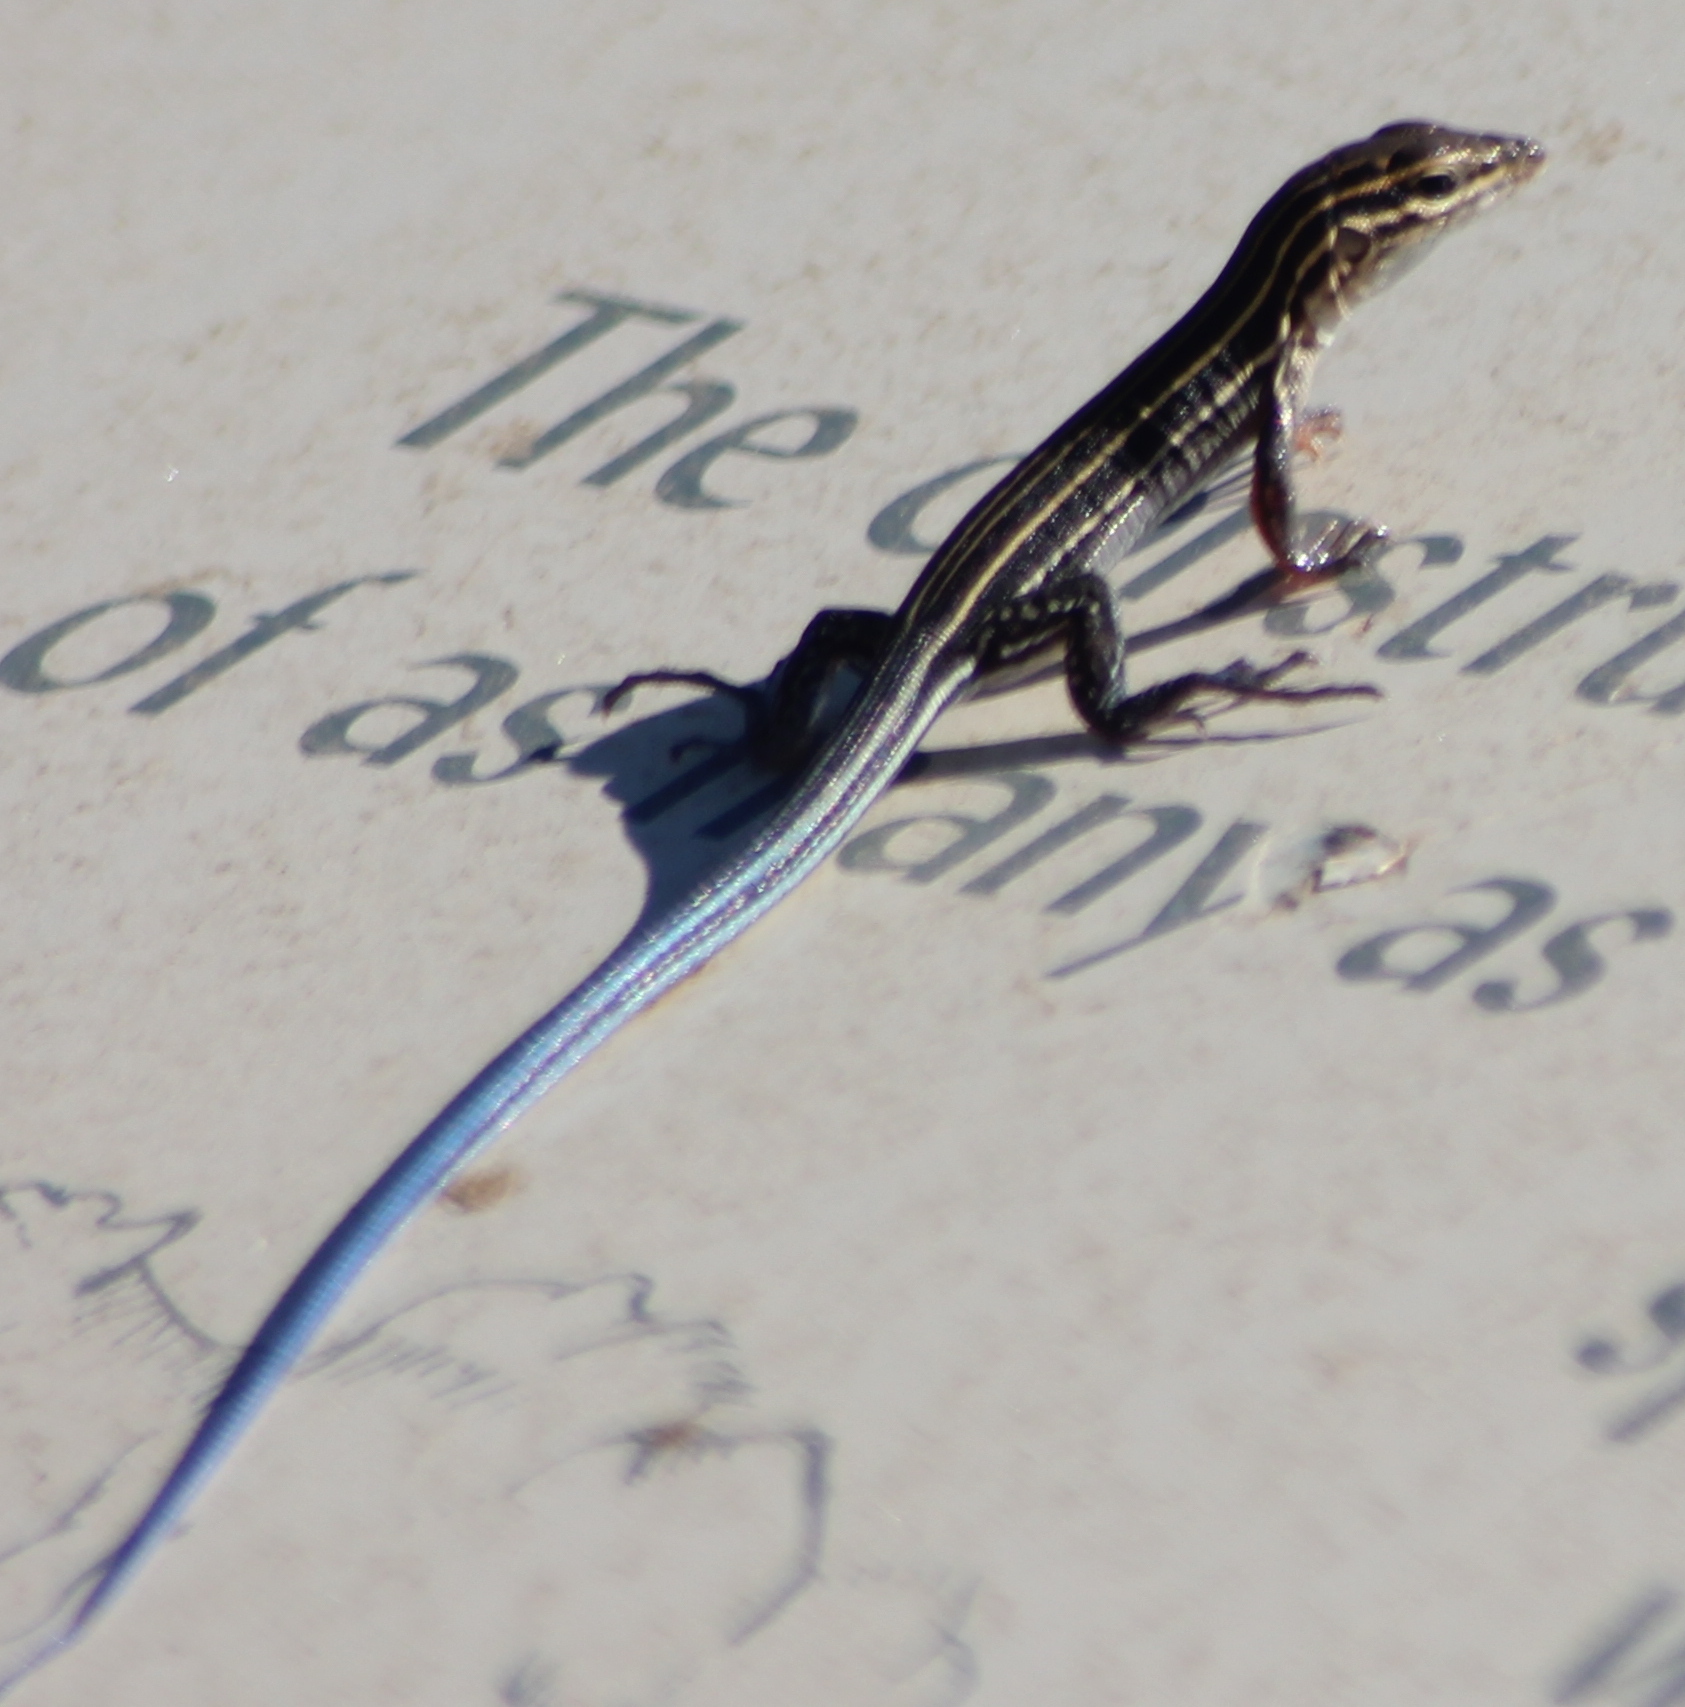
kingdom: Animalia
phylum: Chordata
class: Squamata
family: Teiidae
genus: Aspidoscelis
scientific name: Aspidoscelis hyperythrus
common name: Orange-throated race-runner
